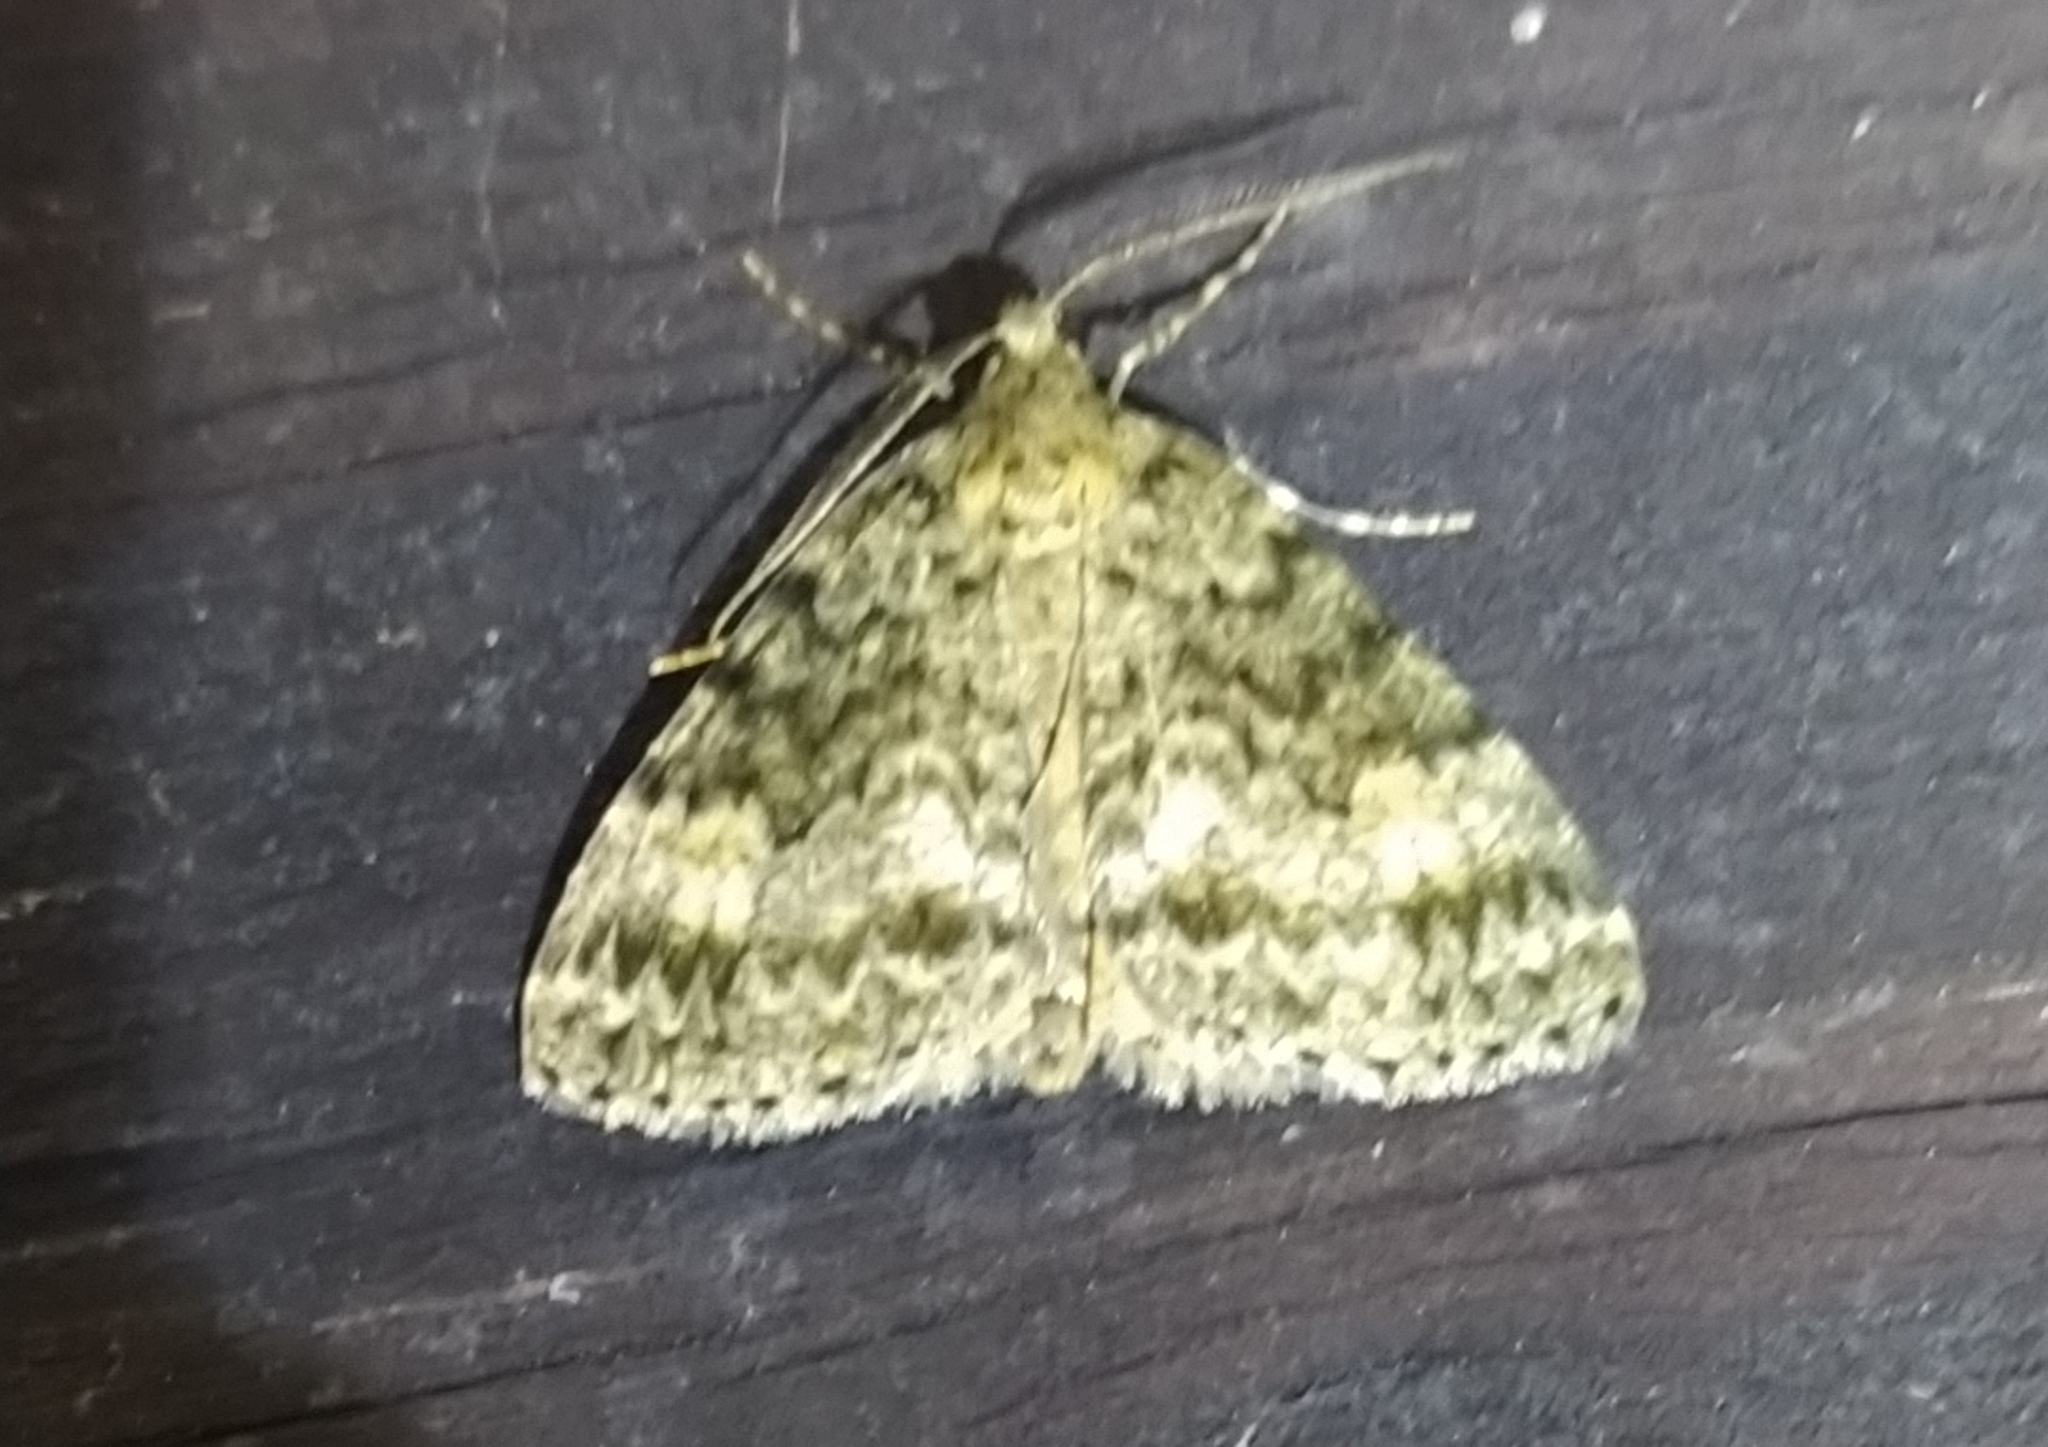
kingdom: Animalia
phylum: Arthropoda
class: Insecta
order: Lepidoptera
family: Geometridae
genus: Pseudocoremia
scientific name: Pseudocoremia indistincta
